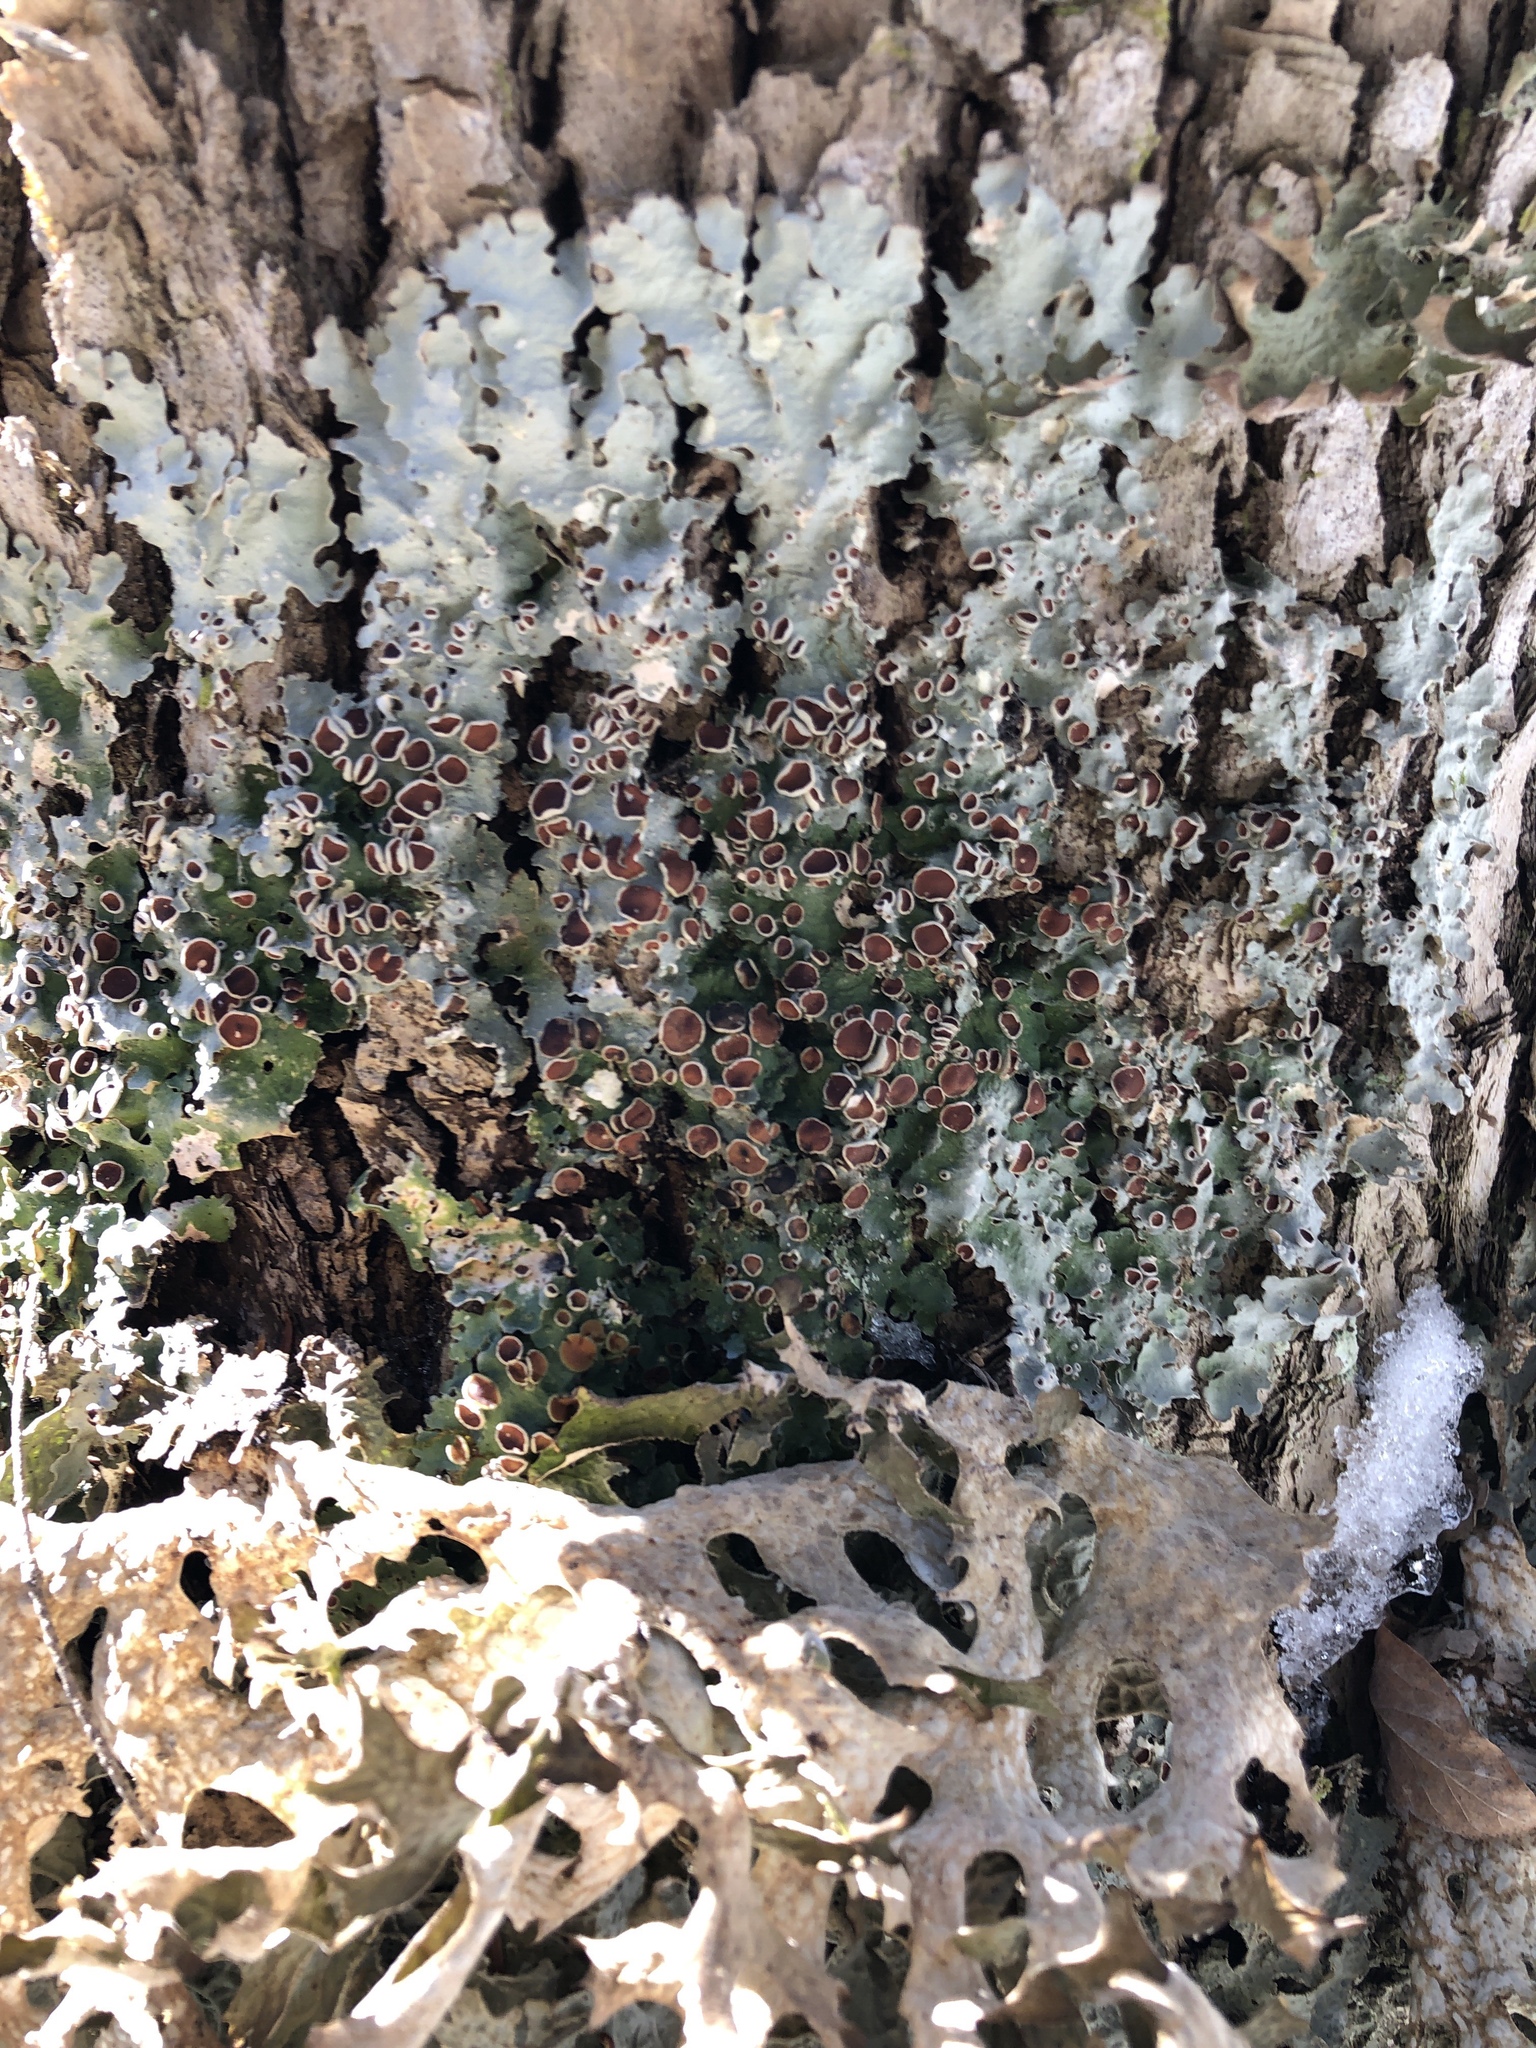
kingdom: Fungi
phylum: Ascomycota
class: Lecanoromycetes
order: Peltigerales
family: Lobariaceae
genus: Ricasolia
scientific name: Ricasolia quercizans
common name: Smooth lungwort
